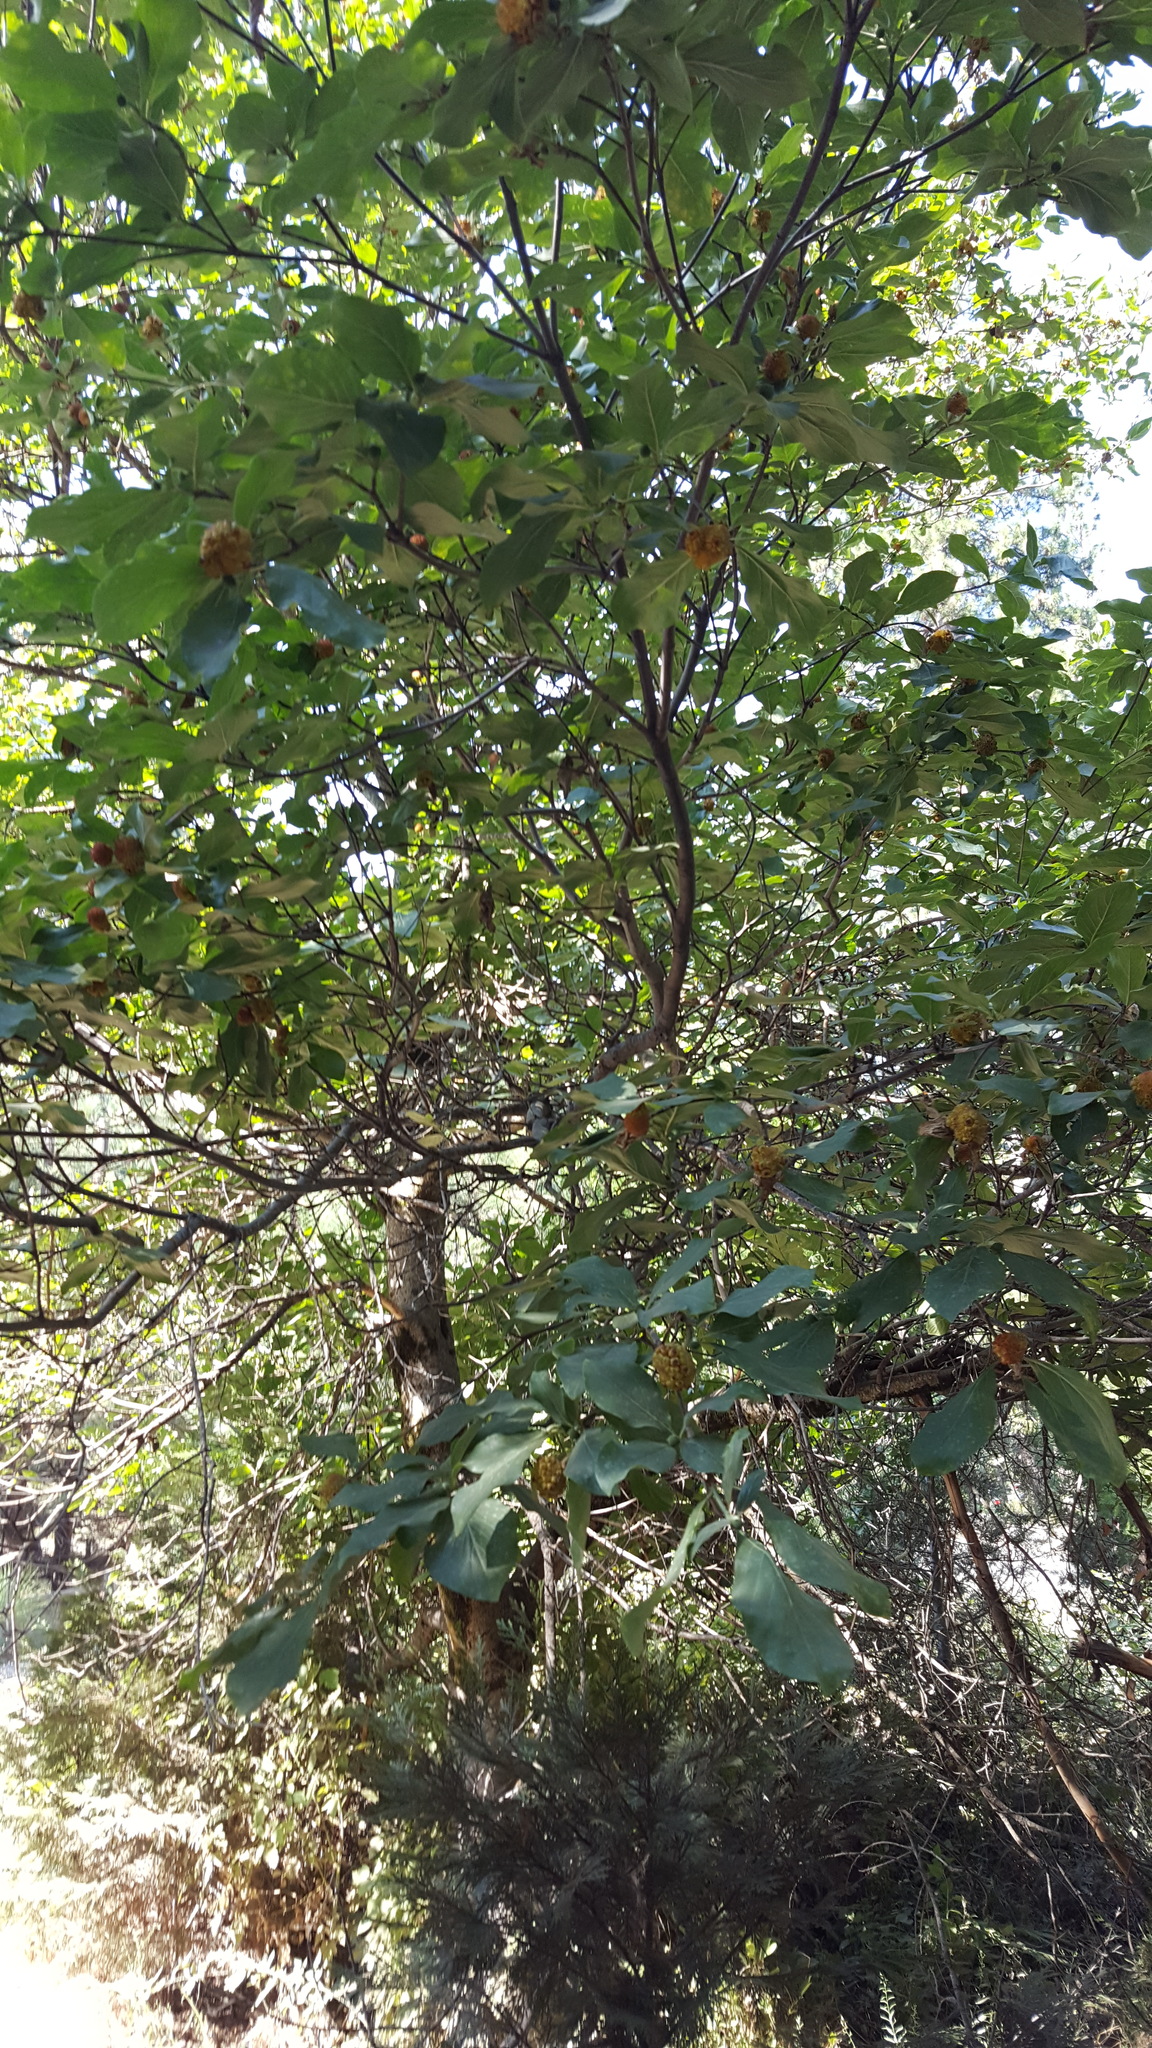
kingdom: Plantae
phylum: Tracheophyta
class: Magnoliopsida
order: Cornales
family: Cornaceae
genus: Cornus
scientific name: Cornus nuttallii
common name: Pacific dogwood
